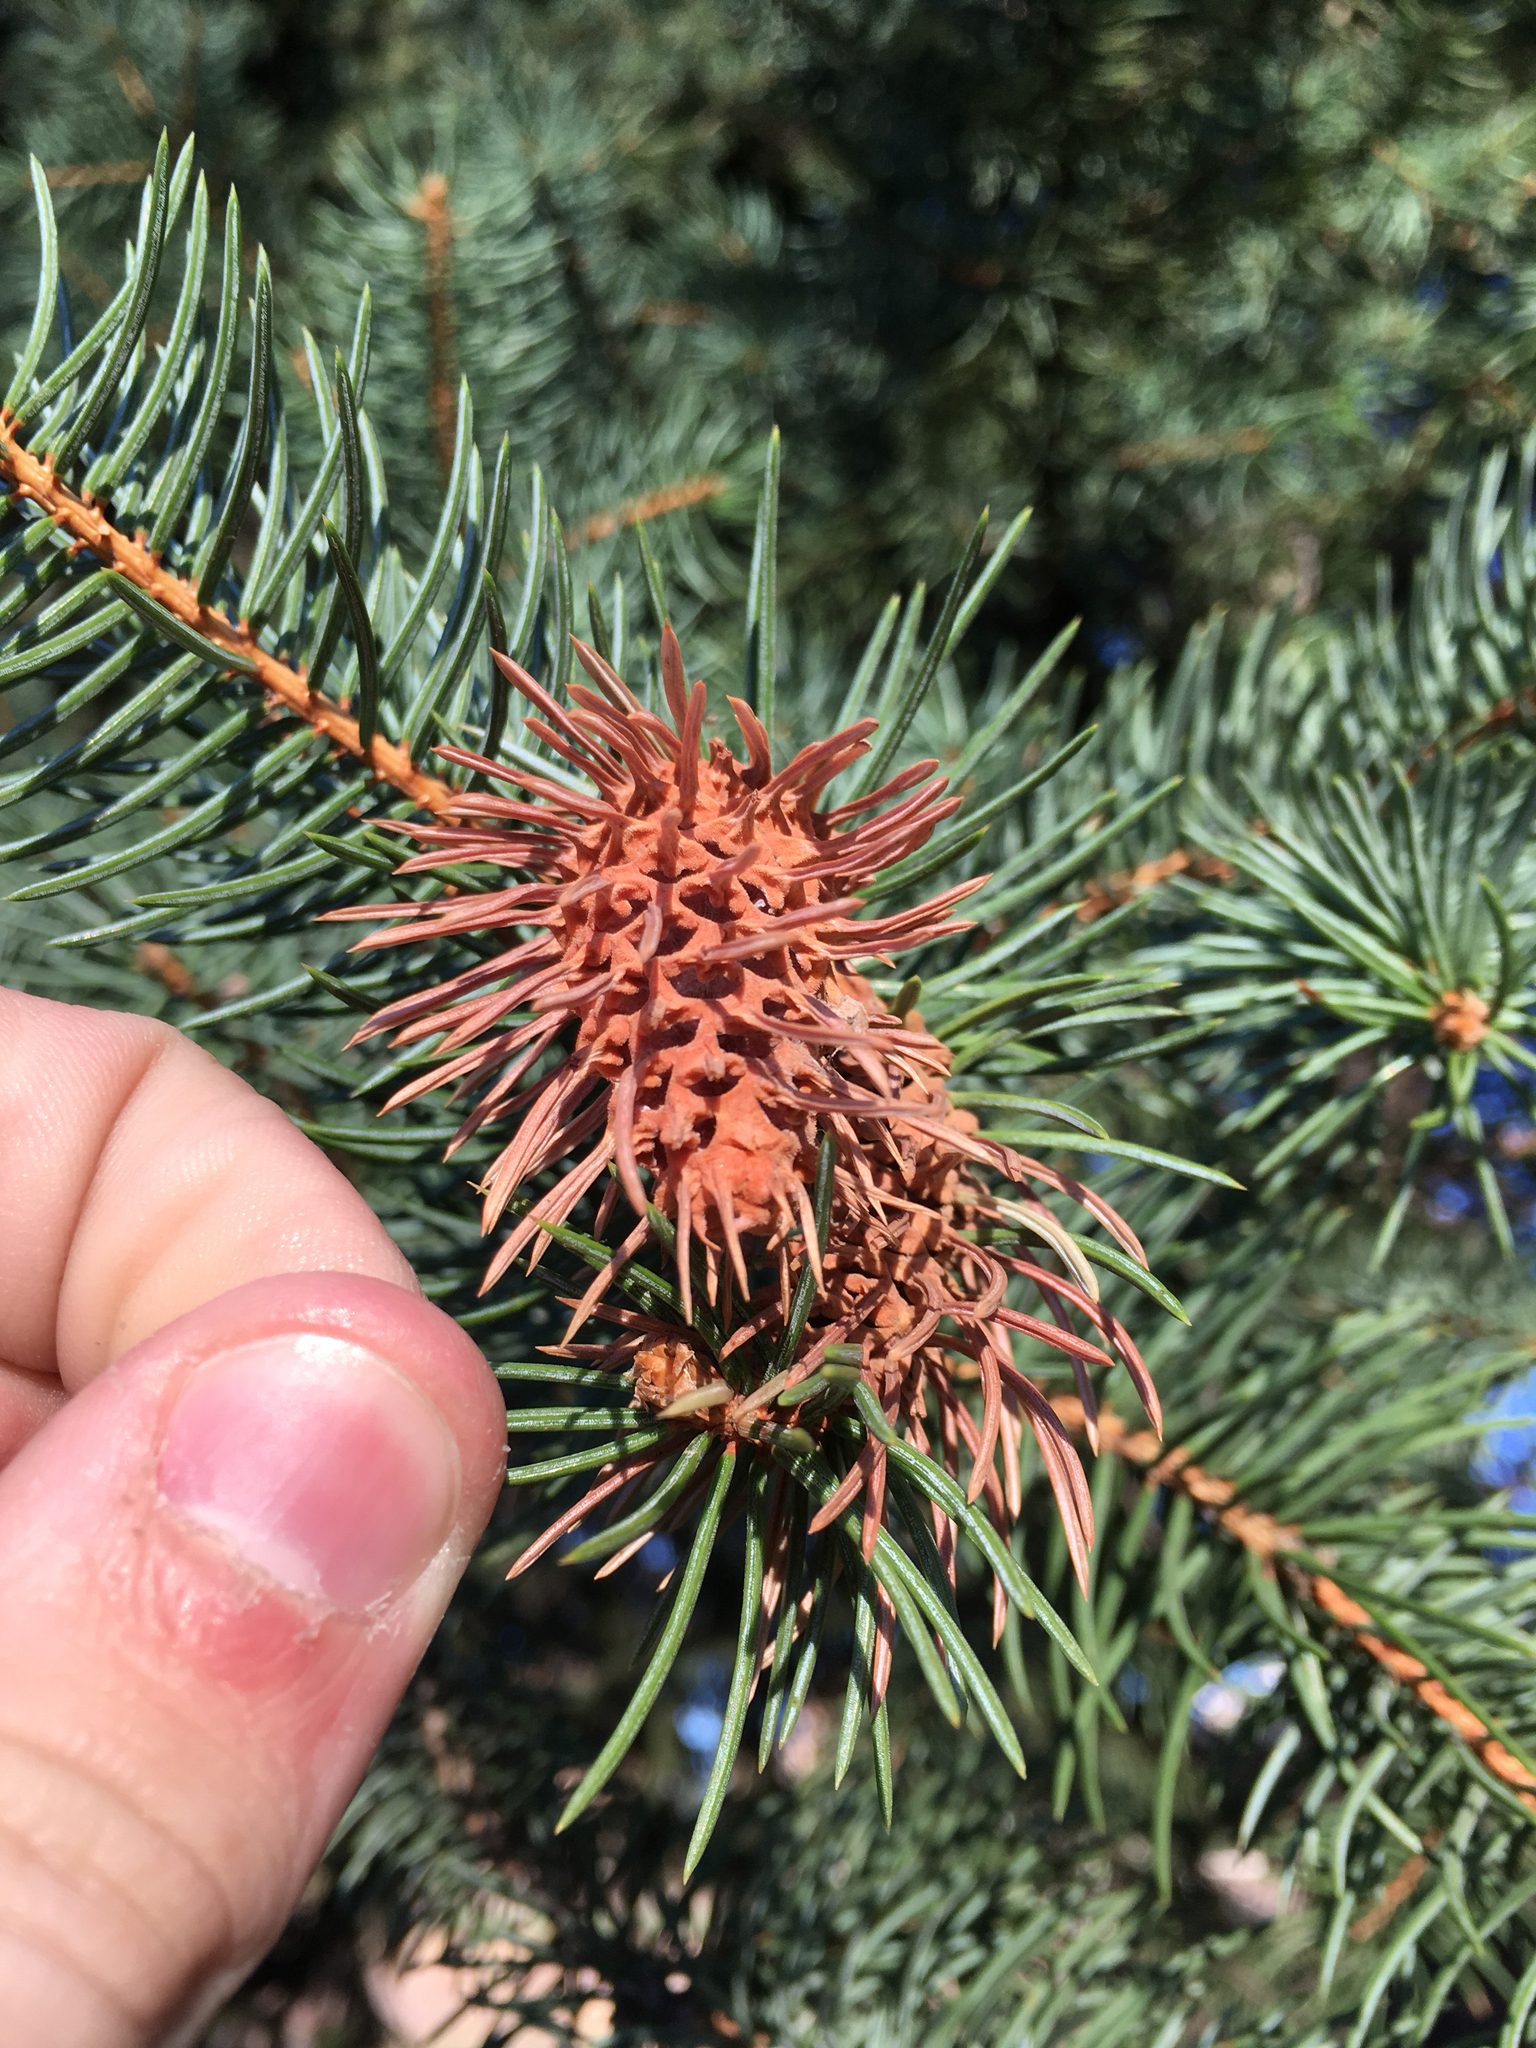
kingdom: Animalia
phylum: Arthropoda
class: Insecta
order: Hemiptera
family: Adelgidae
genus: Adelges
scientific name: Adelges cooleyi
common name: Cooley spruce gall adelgid
